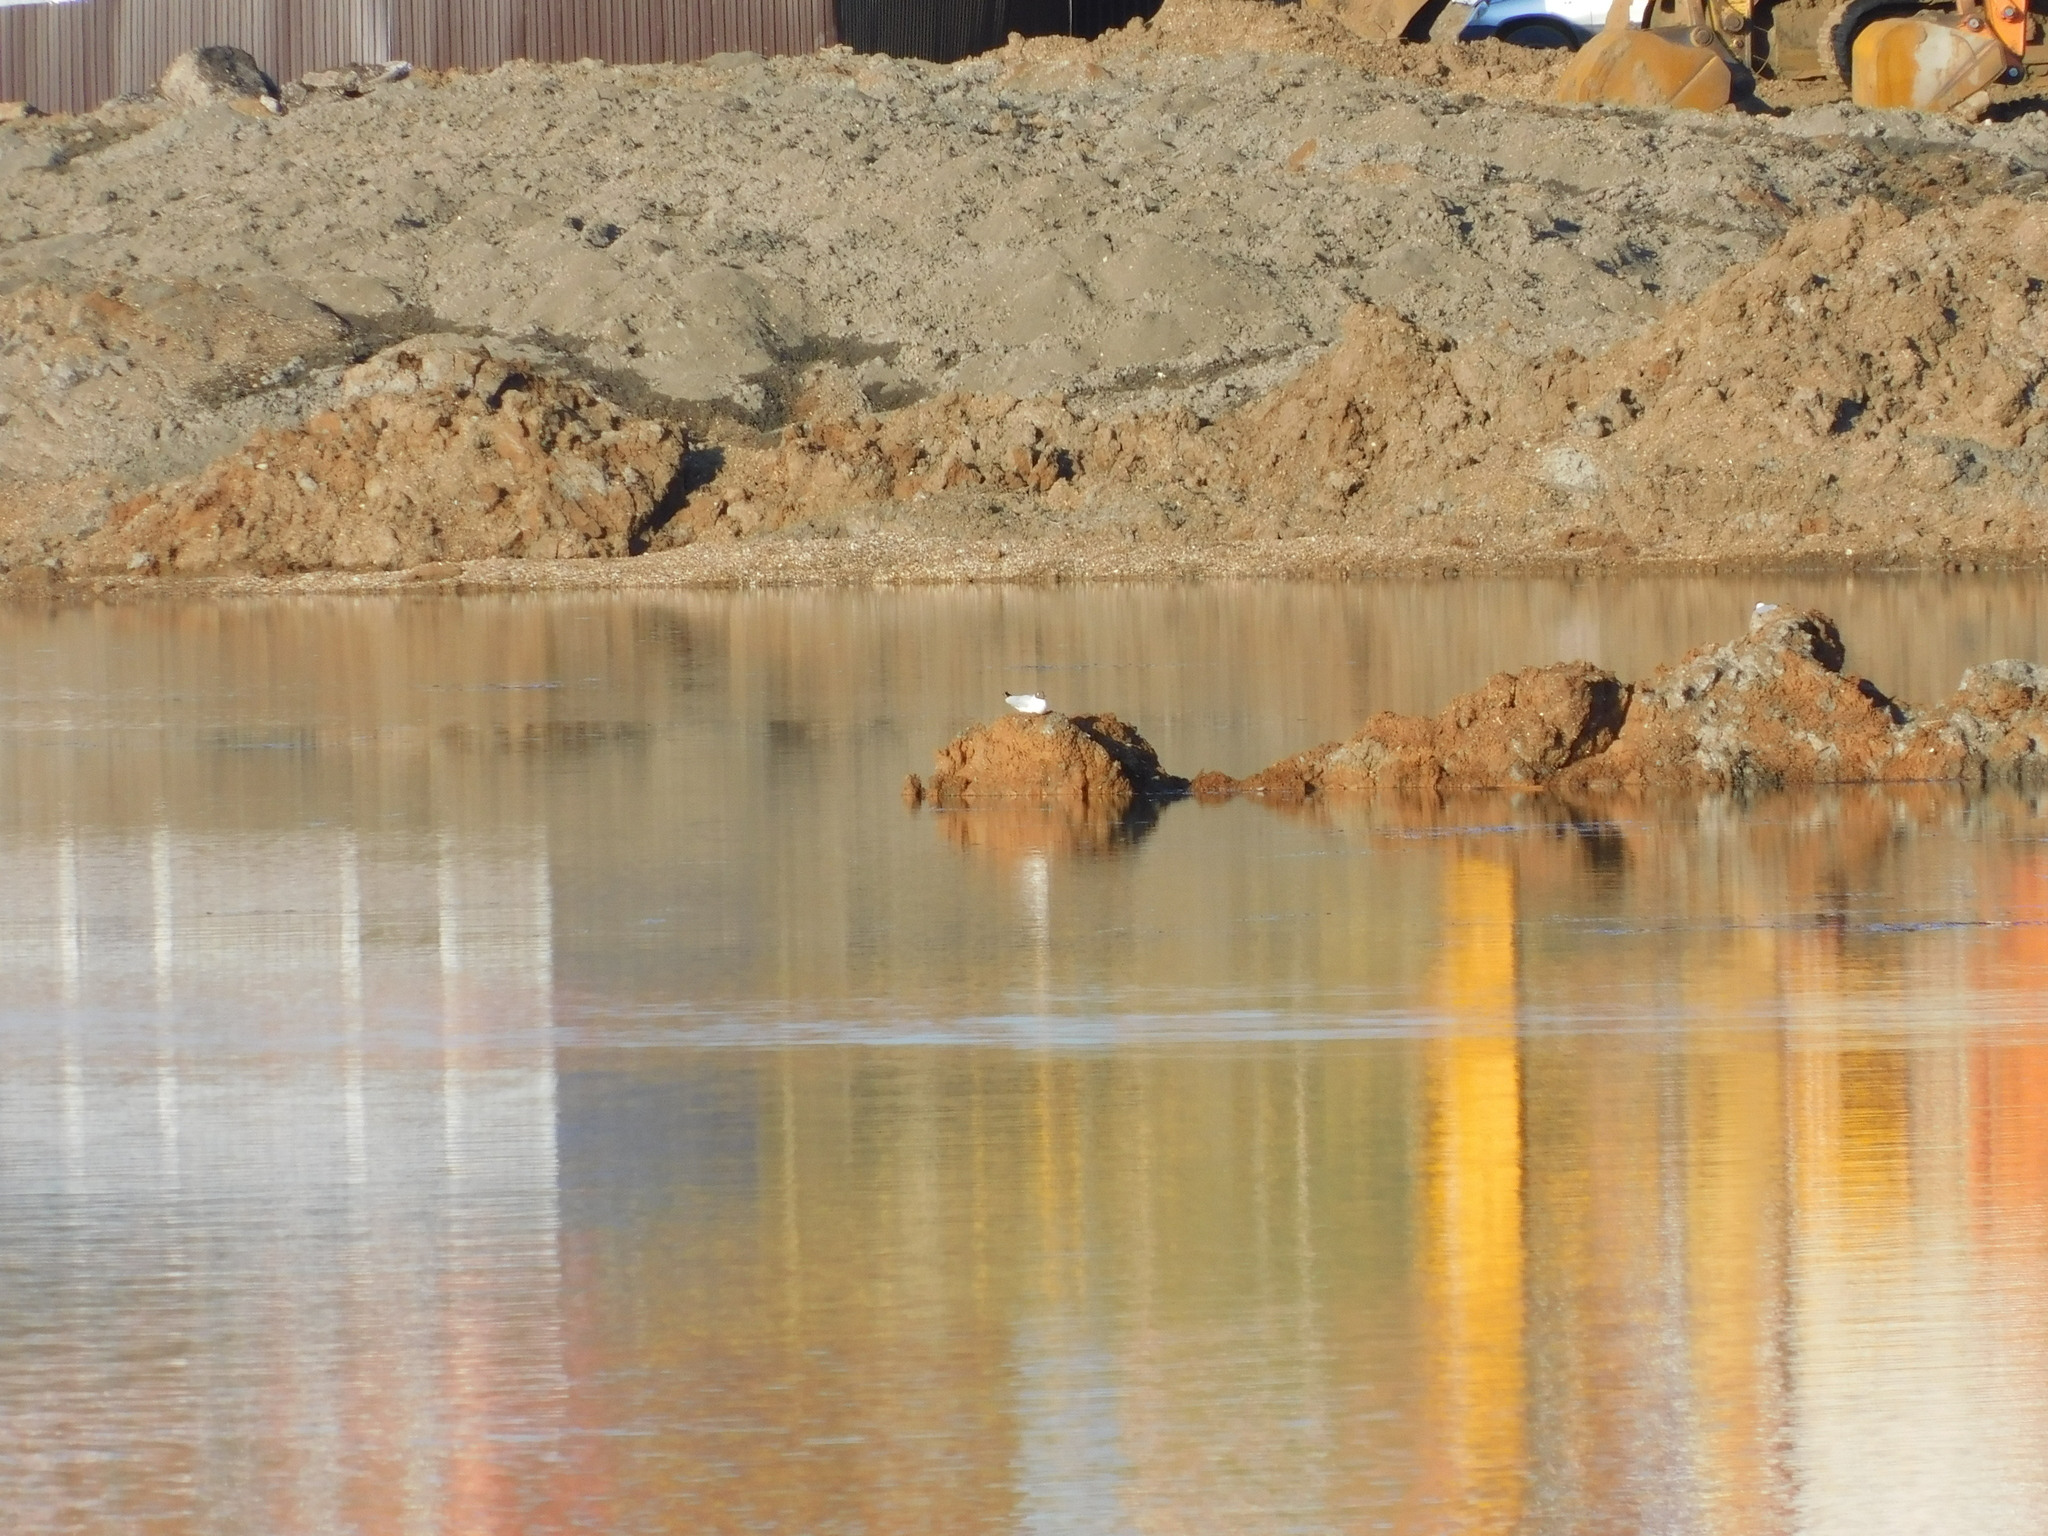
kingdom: Animalia
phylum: Chordata
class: Aves
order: Charadriiformes
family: Laridae
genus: Chroicocephalus
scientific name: Chroicocephalus ridibundus
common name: Black-headed gull
